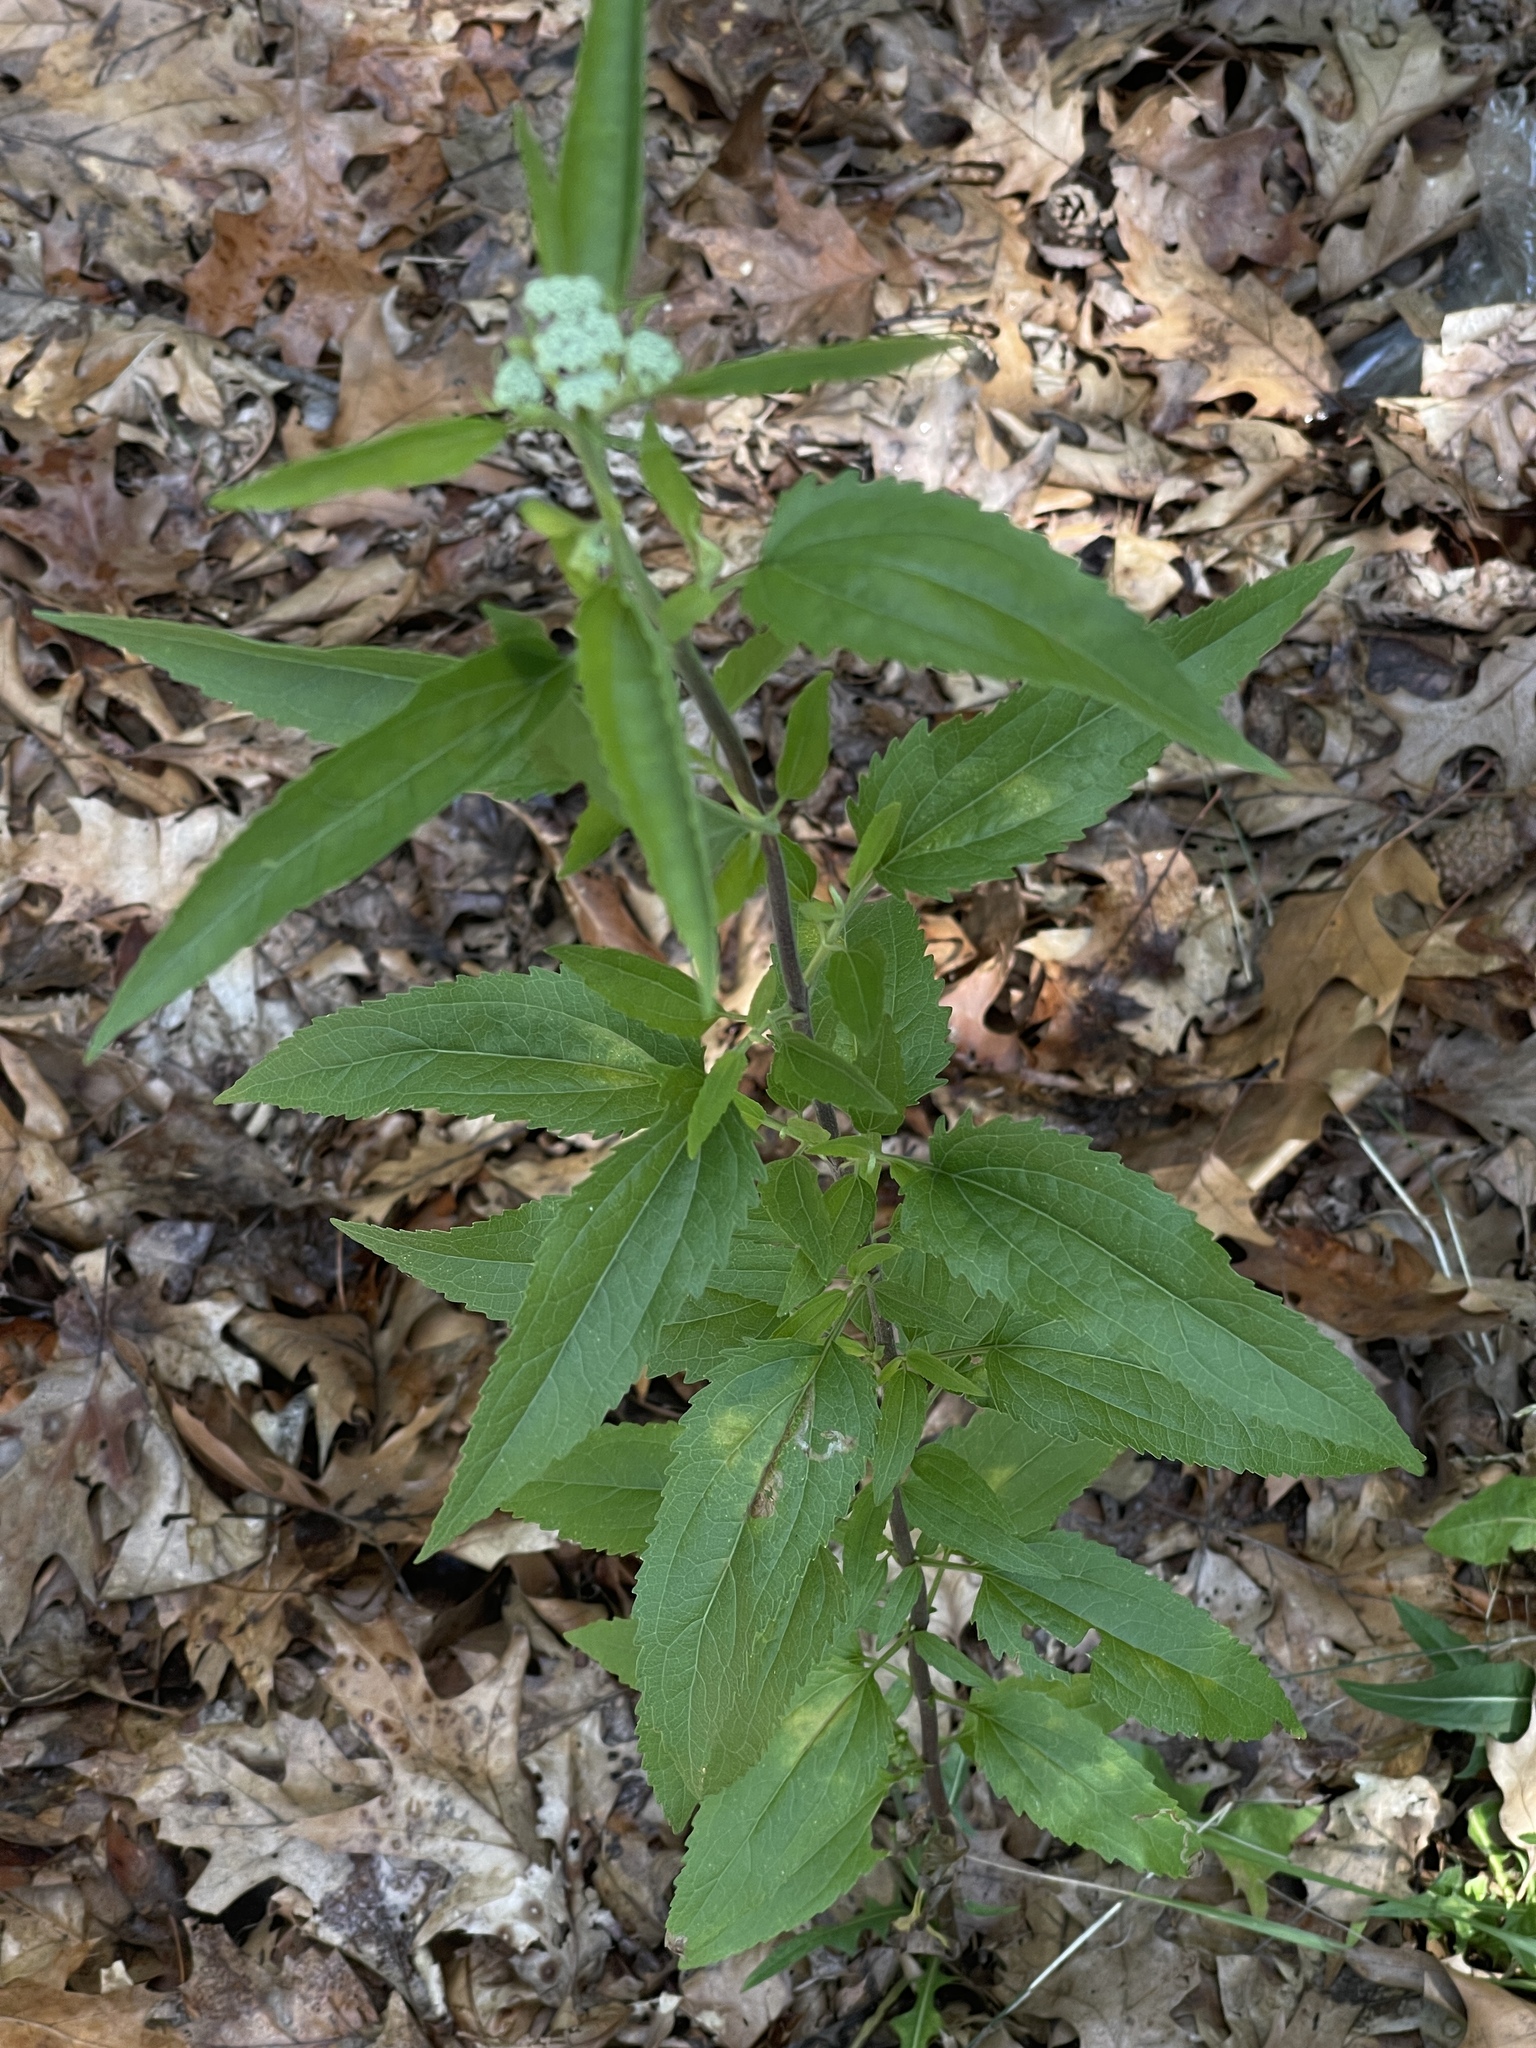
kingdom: Plantae
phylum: Tracheophyta
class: Magnoliopsida
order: Asterales
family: Asteraceae
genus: Eupatorium
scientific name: Eupatorium serotinum
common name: Late boneset
